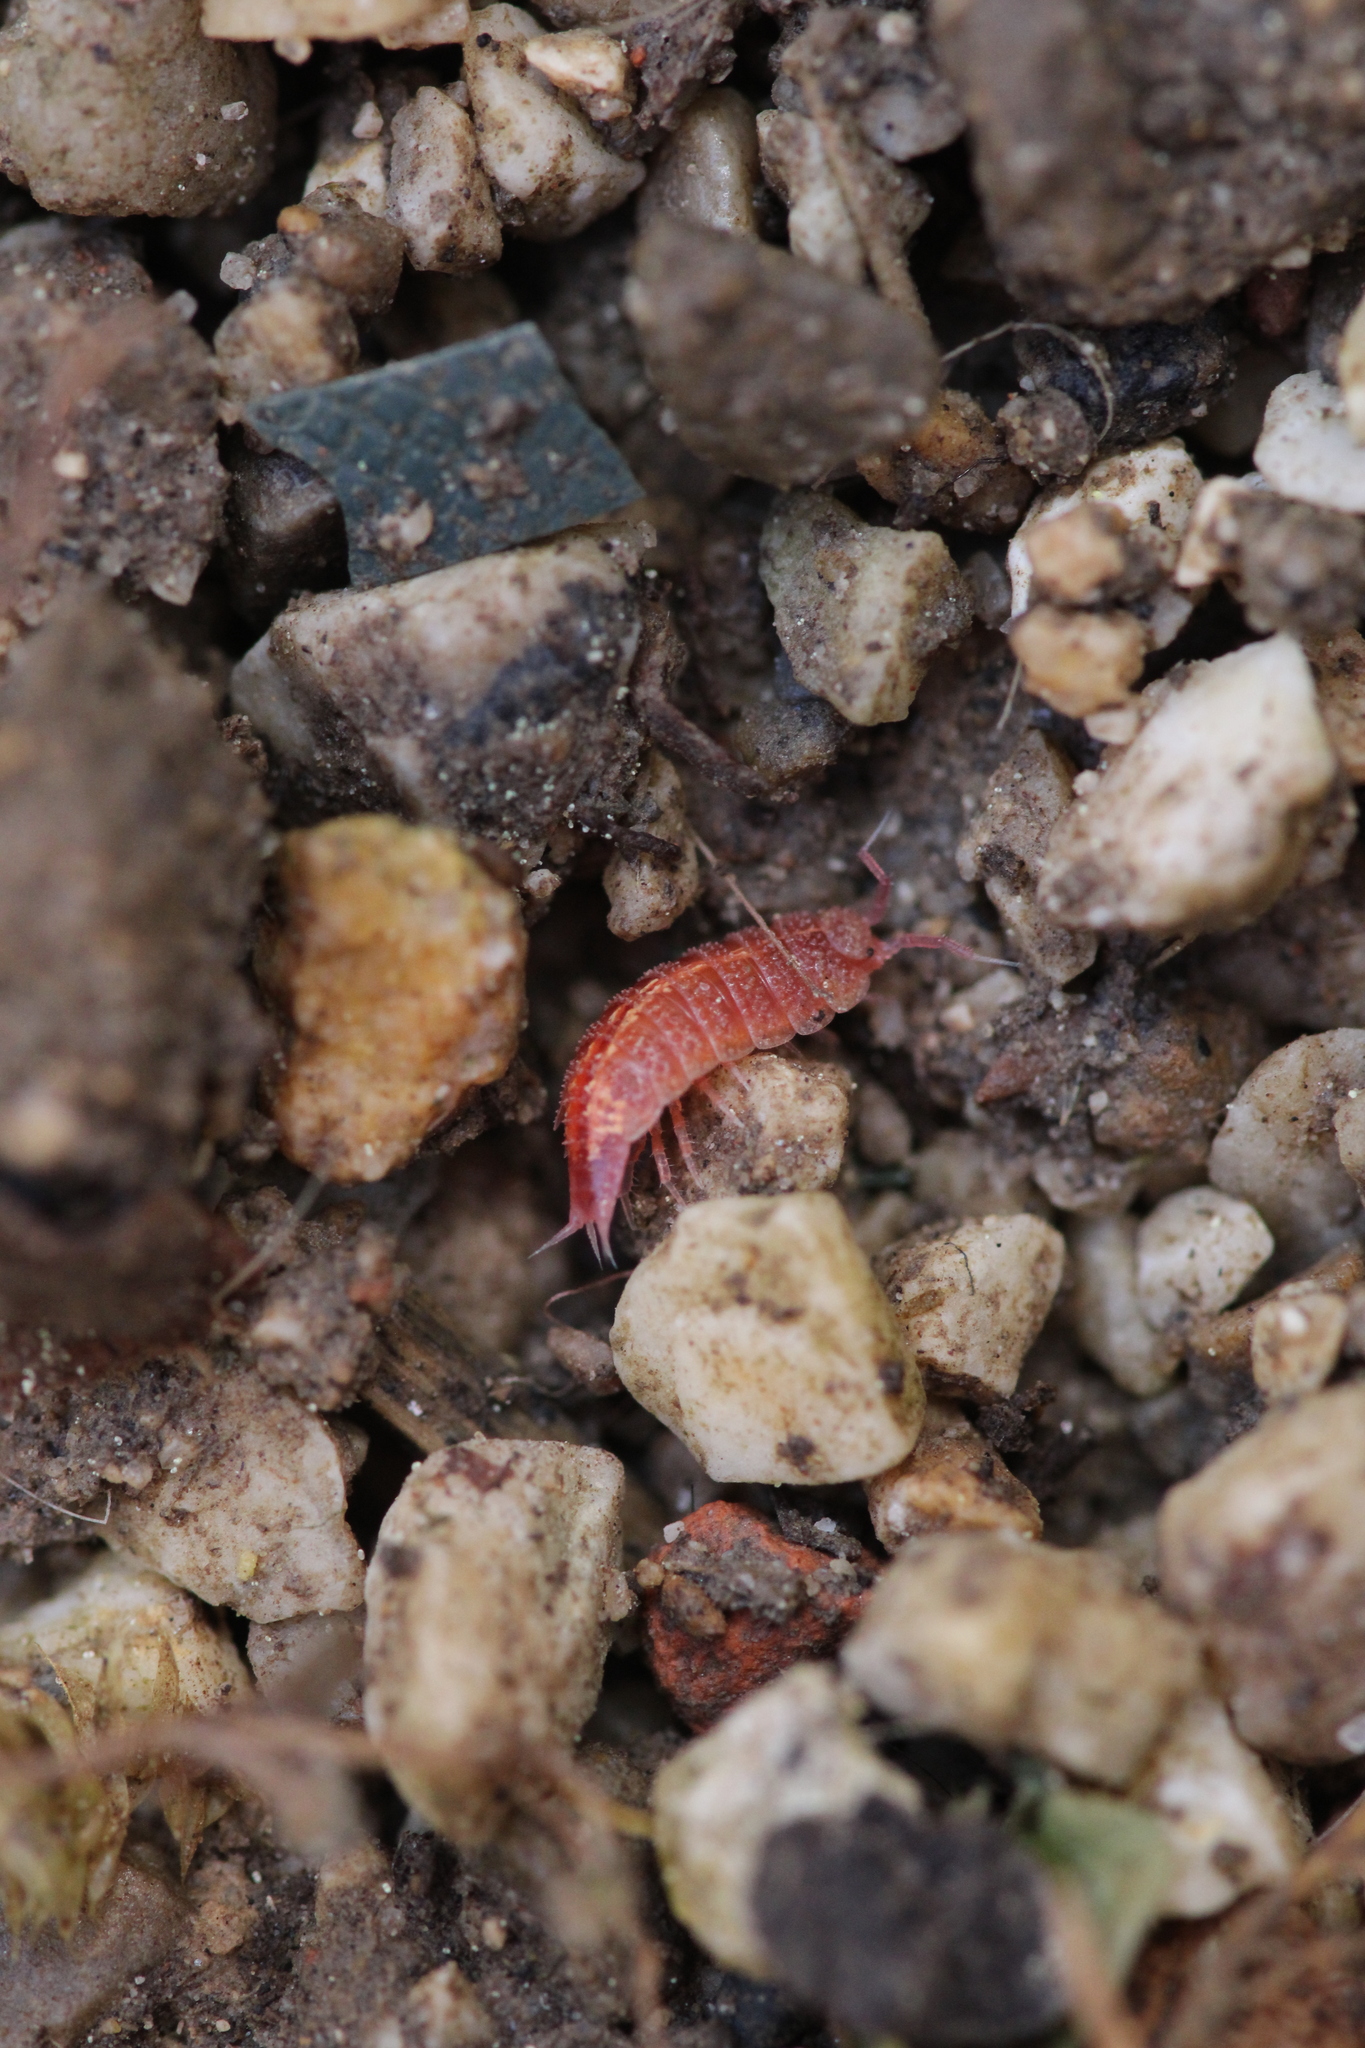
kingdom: Animalia
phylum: Arthropoda
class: Malacostraca
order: Isopoda
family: Trichoniscidae
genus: Androniscus
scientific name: Androniscus dentiger
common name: Rosy woodlouse
